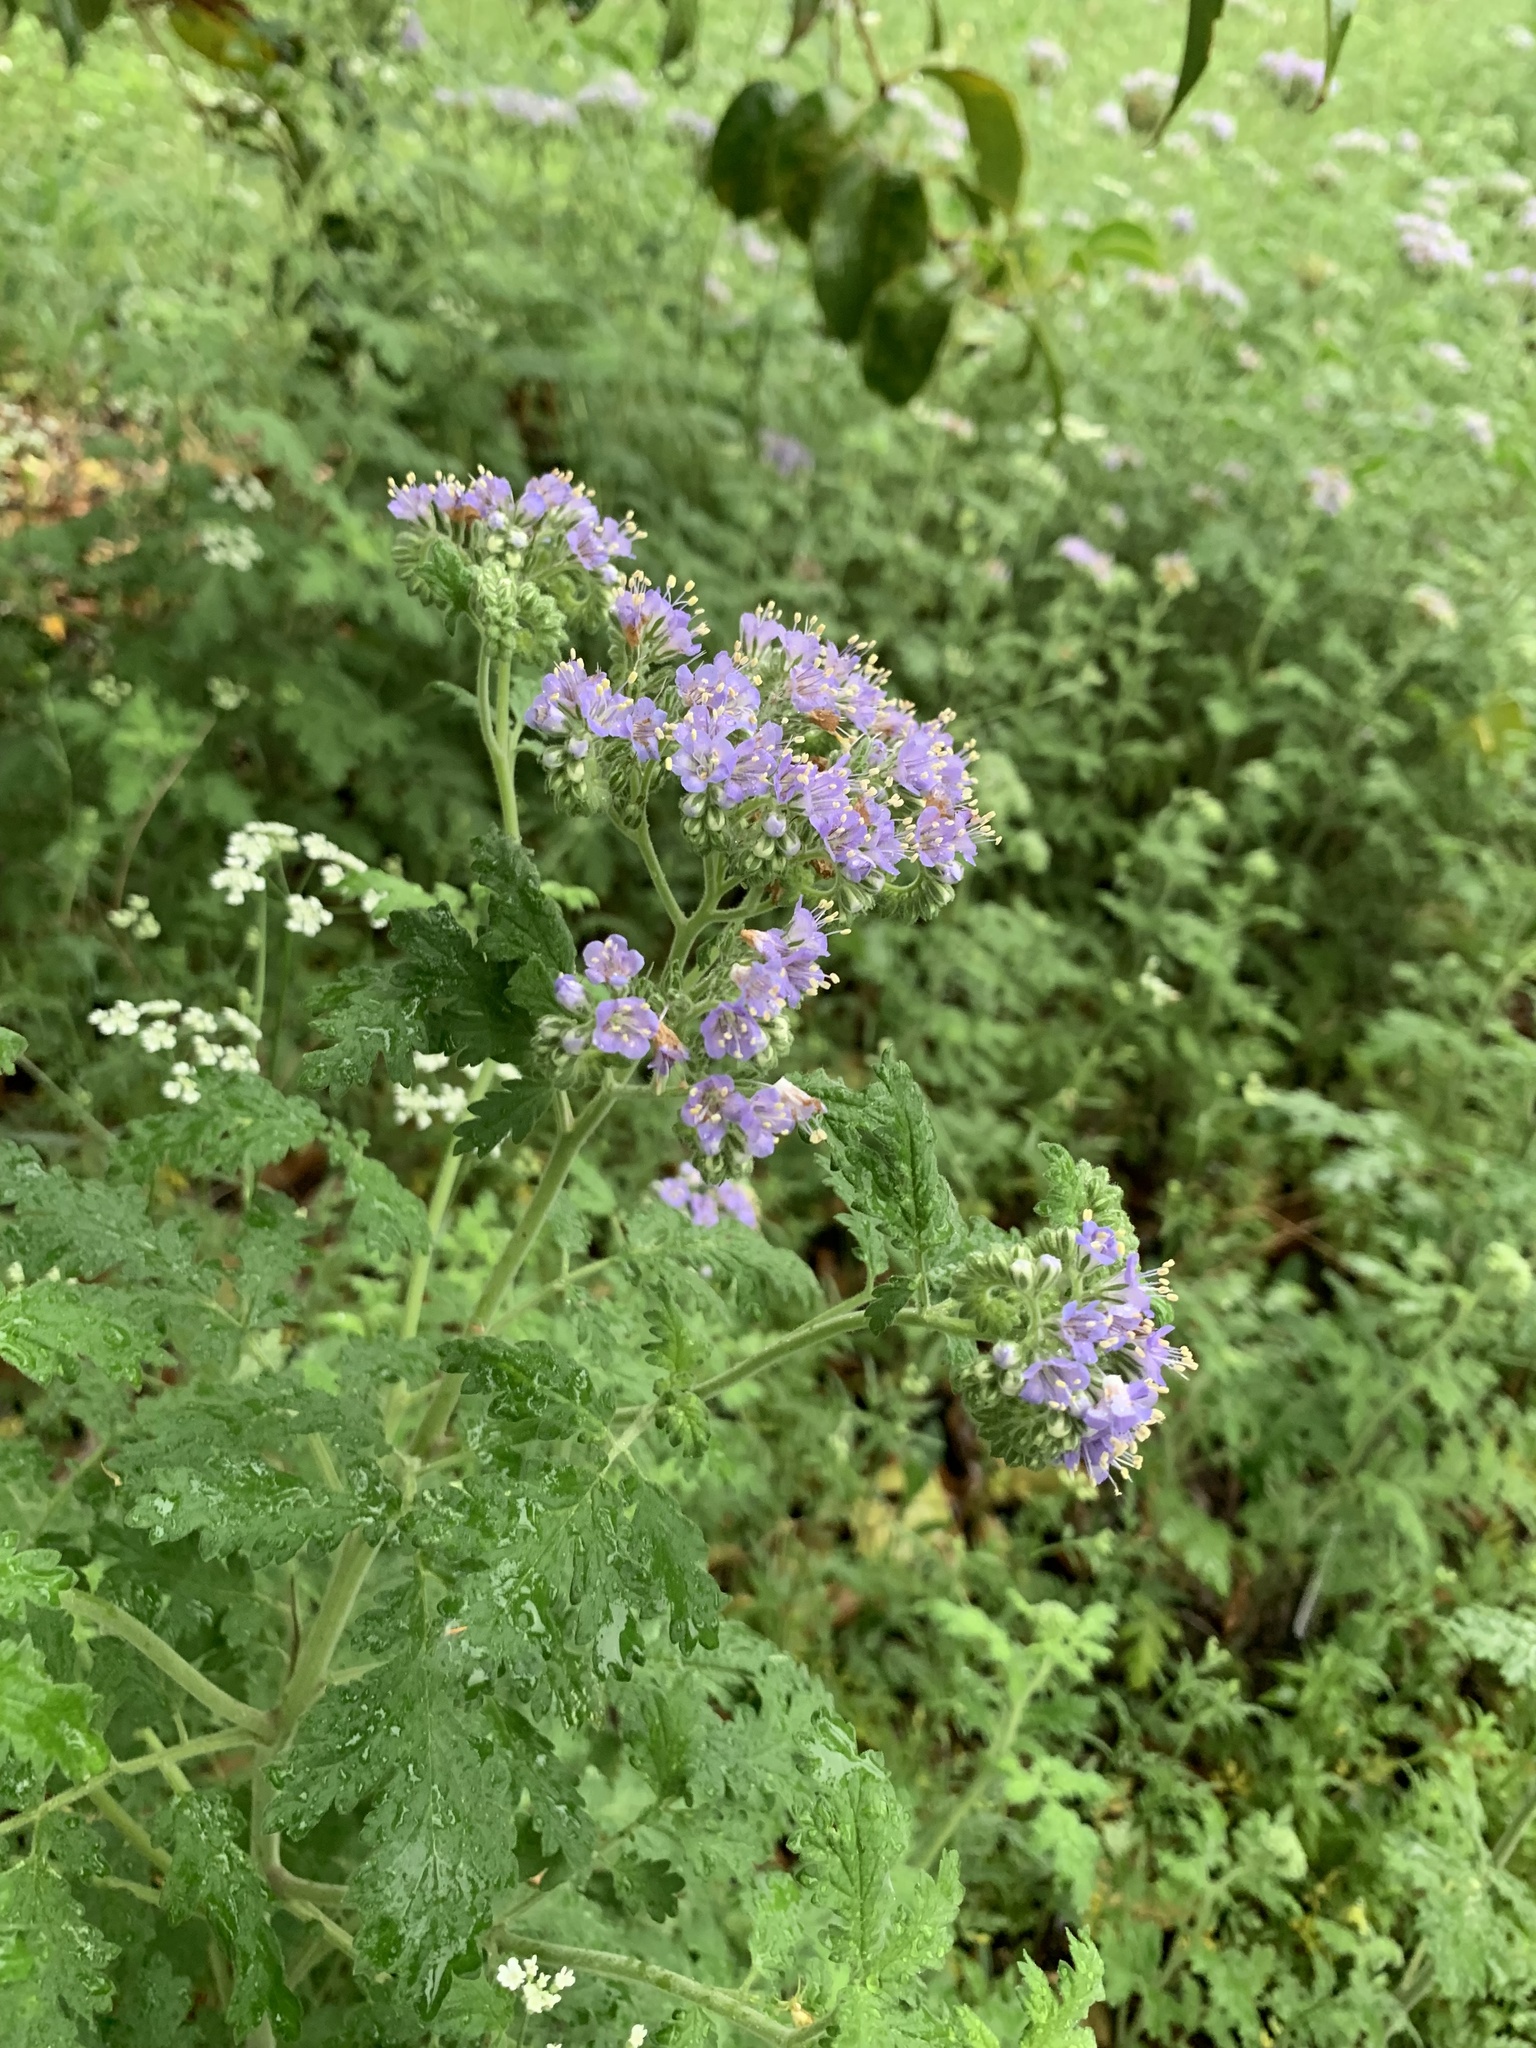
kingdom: Plantae
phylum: Tracheophyta
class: Magnoliopsida
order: Boraginales
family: Hydrophyllaceae
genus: Phacelia
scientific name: Phacelia congesta
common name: Blue curls
